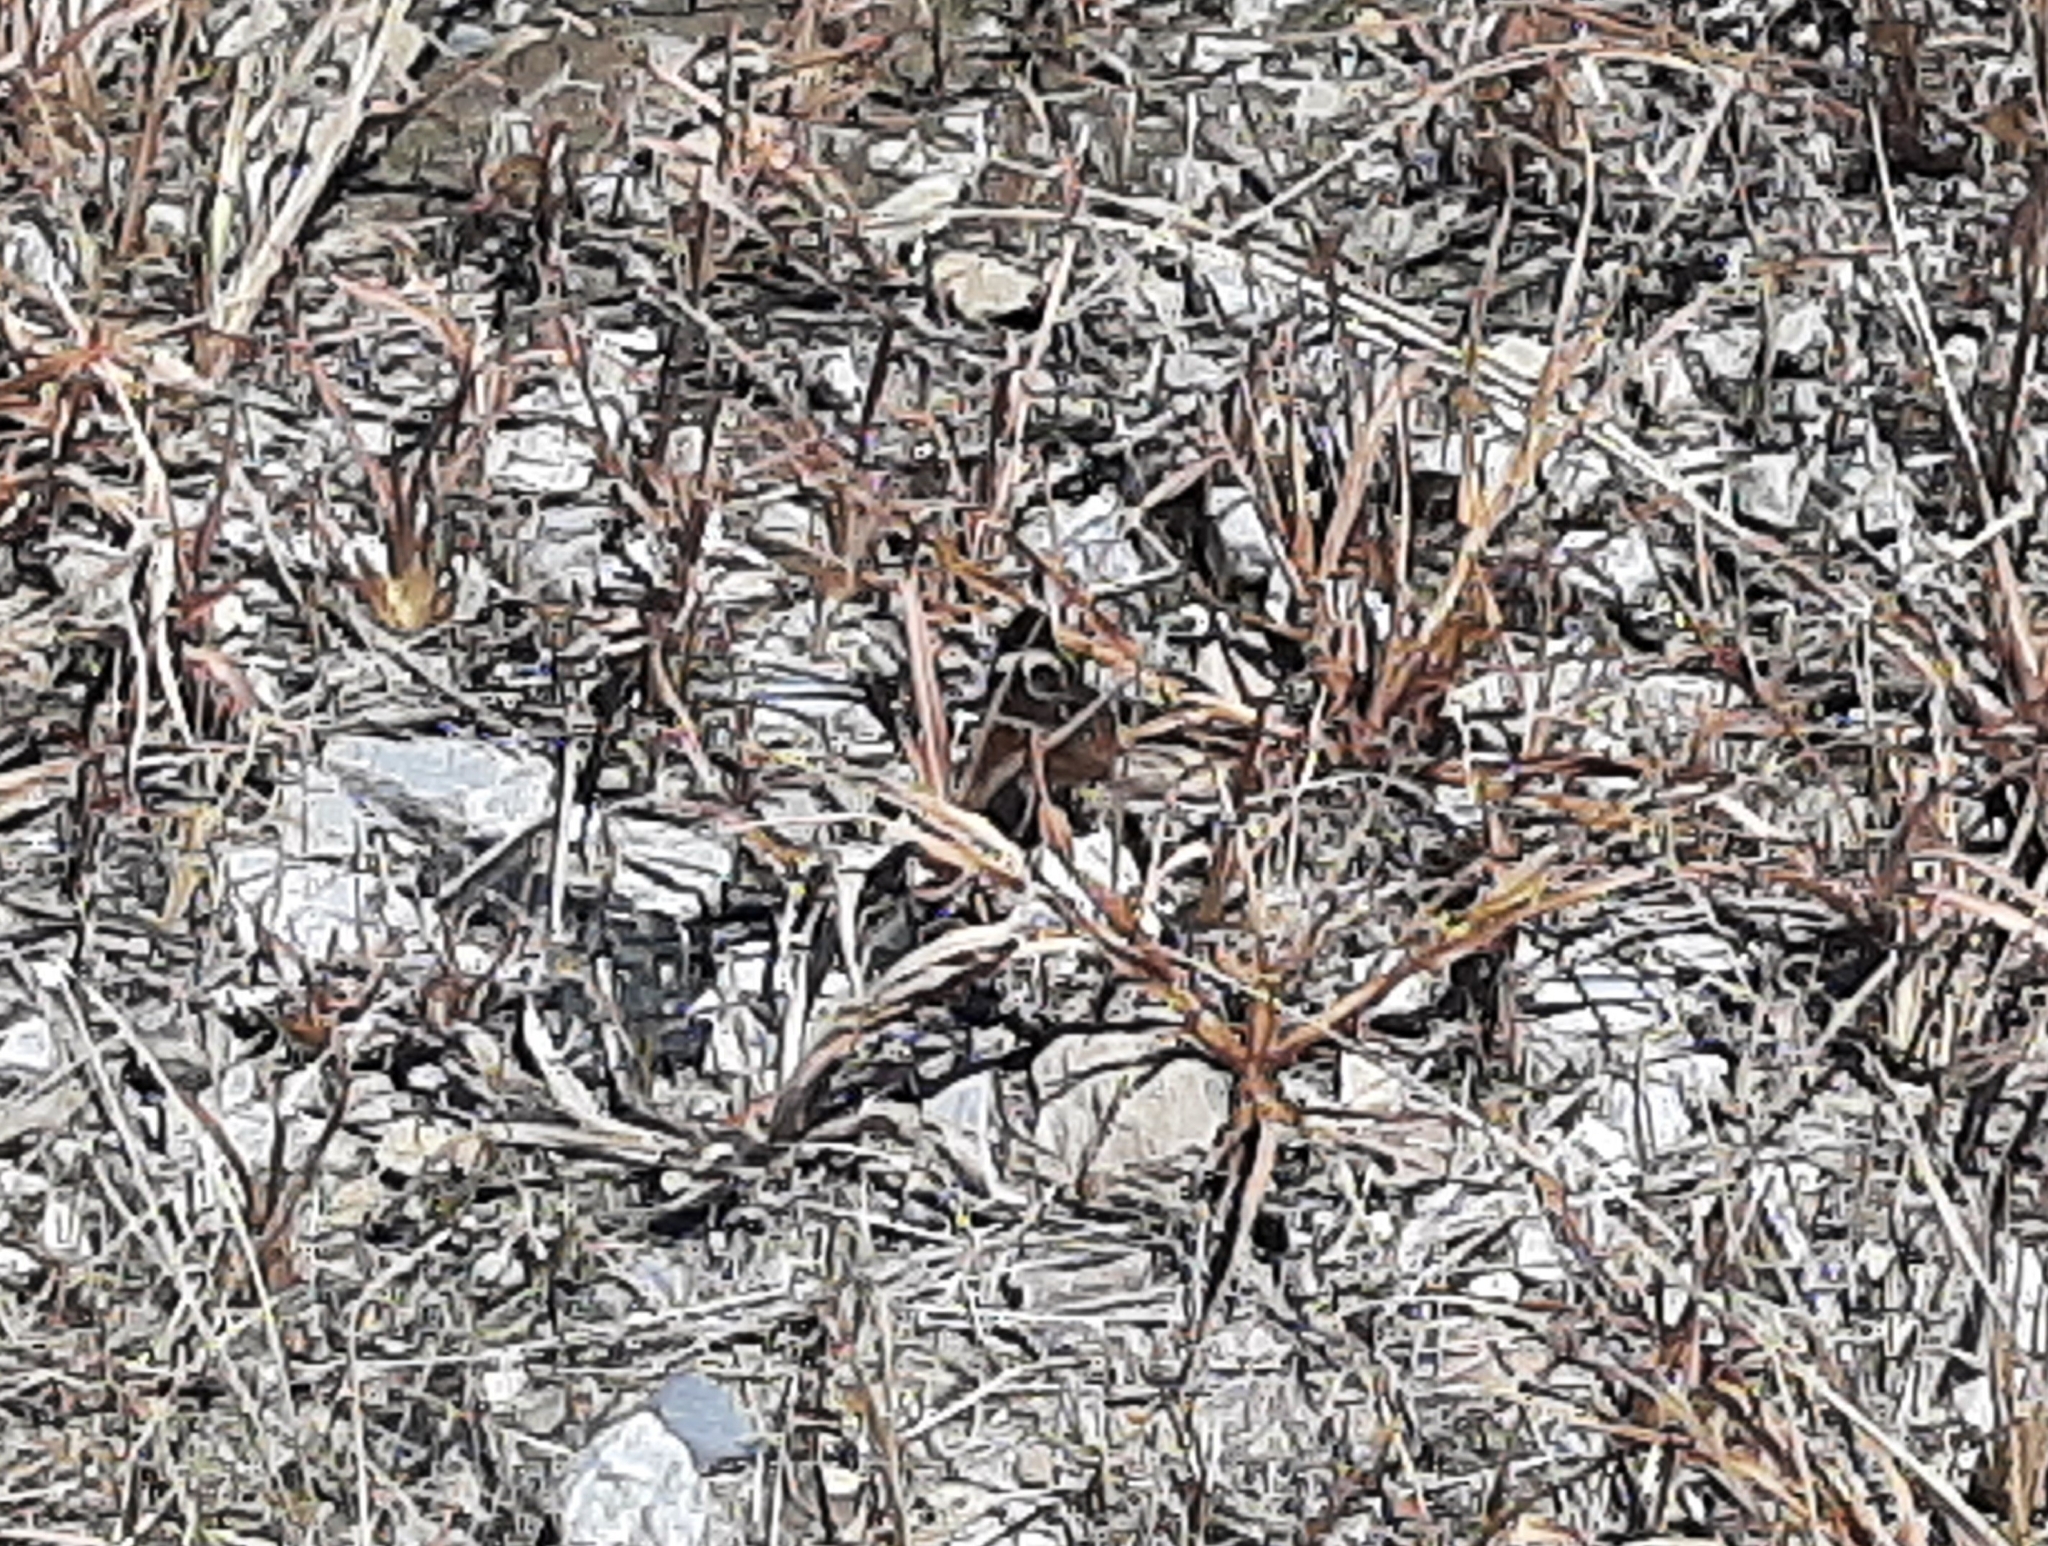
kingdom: Animalia
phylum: Arthropoda
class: Insecta
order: Lepidoptera
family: Nymphalidae
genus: Junonia
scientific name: Junonia coenia
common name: Common buckeye
